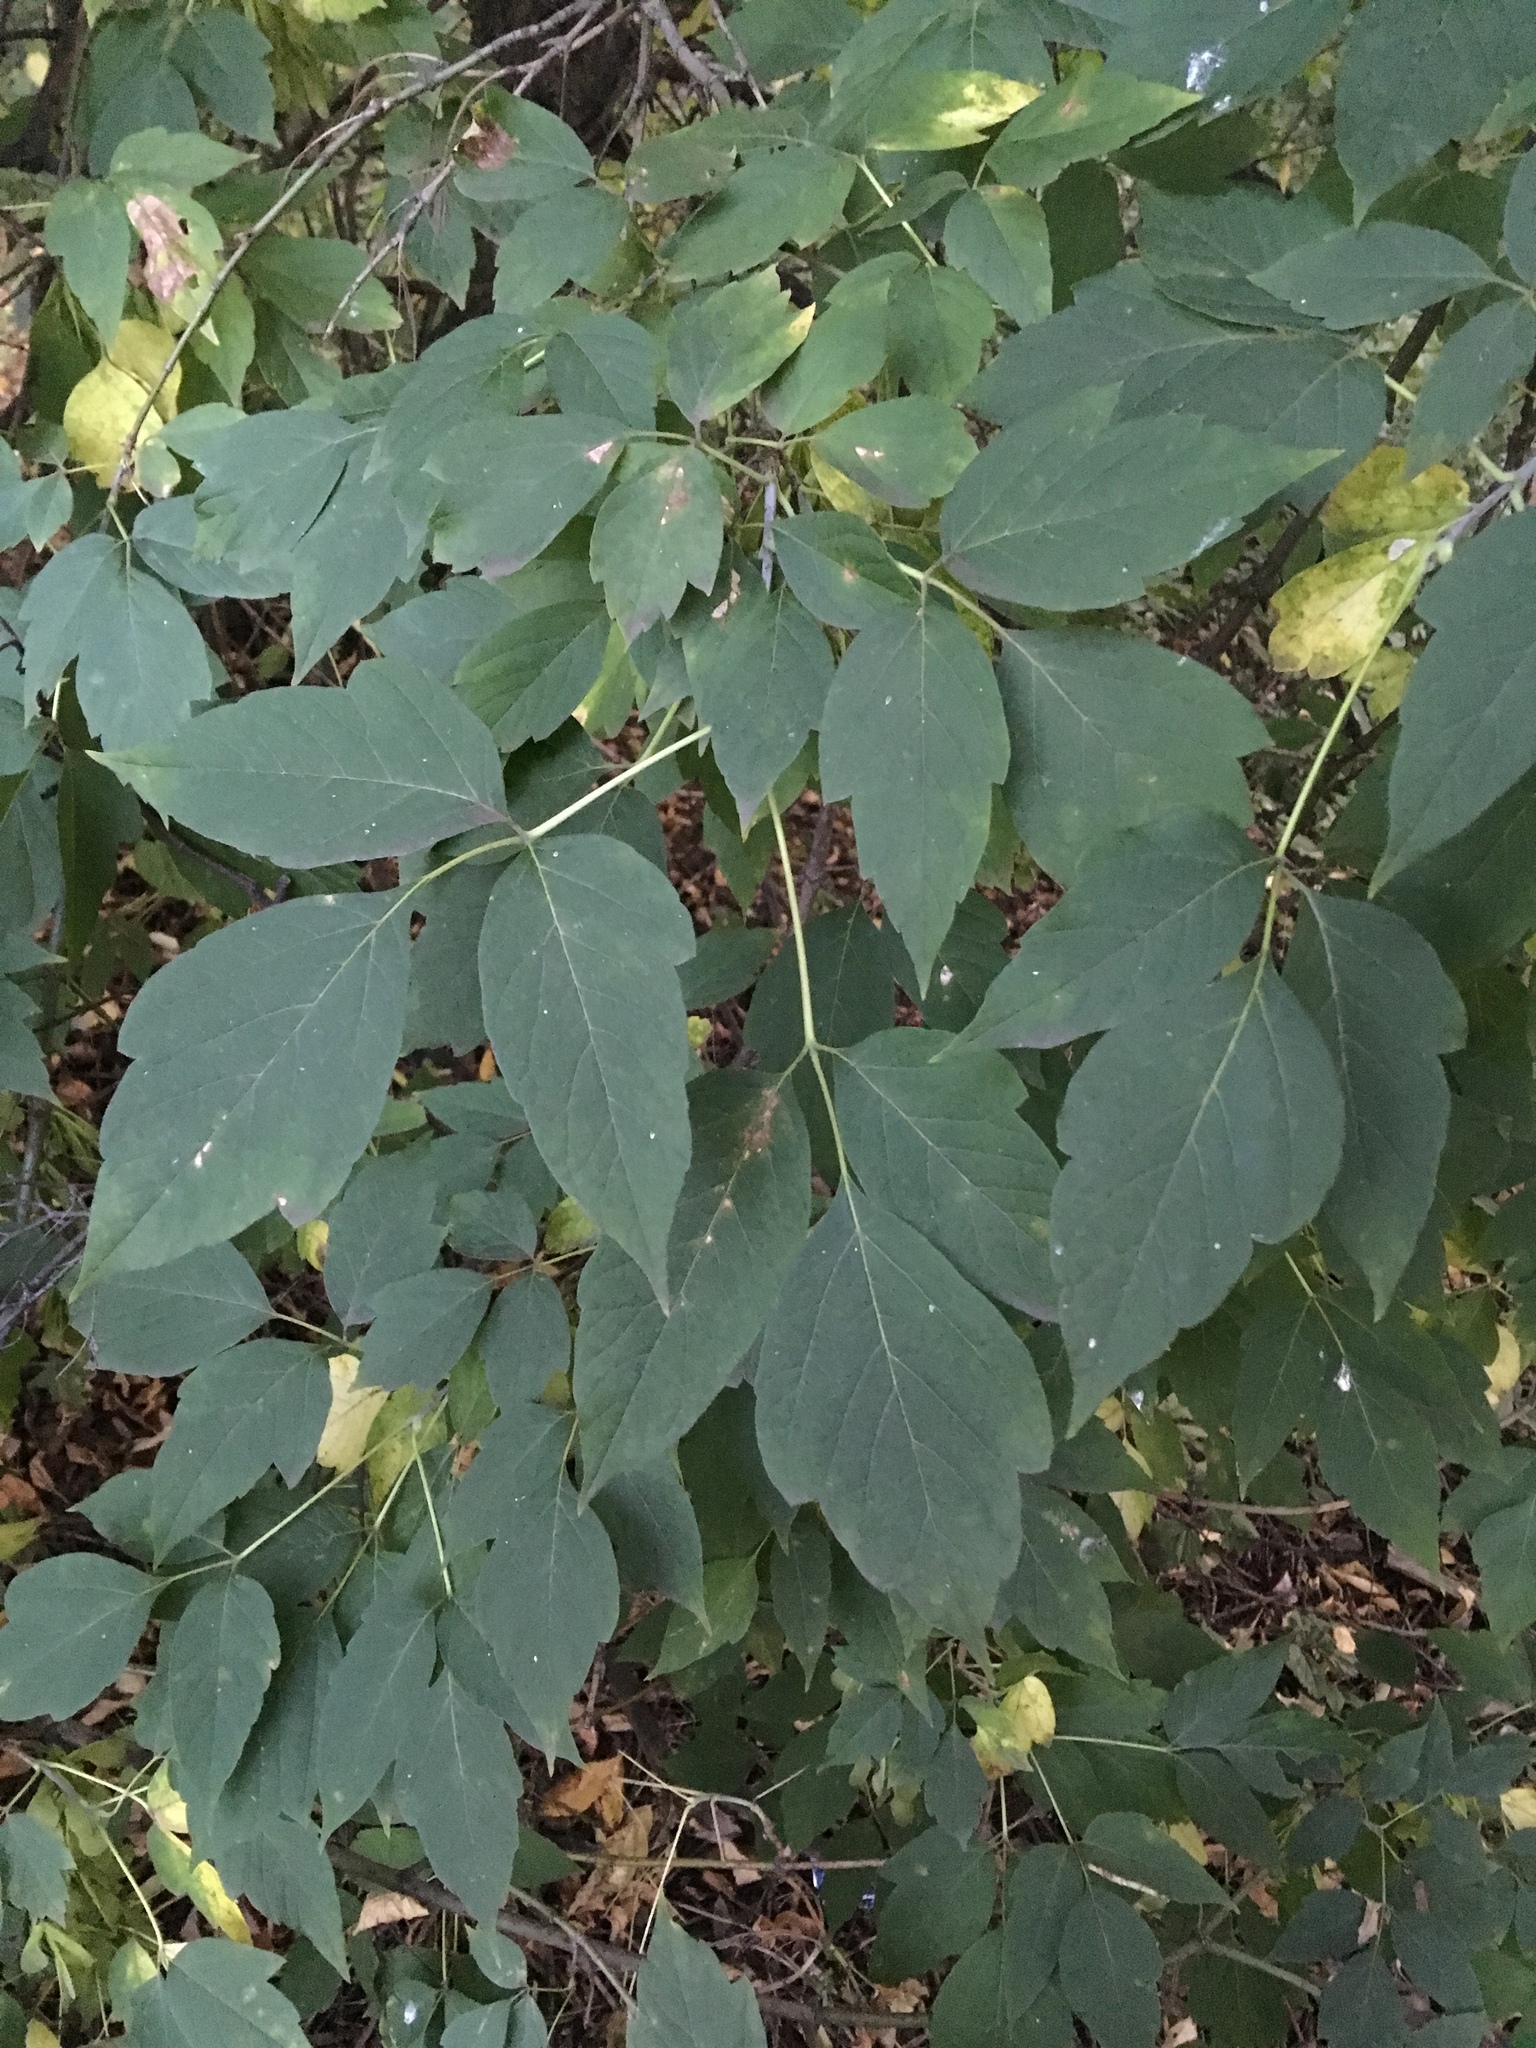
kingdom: Plantae
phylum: Tracheophyta
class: Magnoliopsida
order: Sapindales
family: Sapindaceae
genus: Acer
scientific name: Acer negundo
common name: Ashleaf maple
